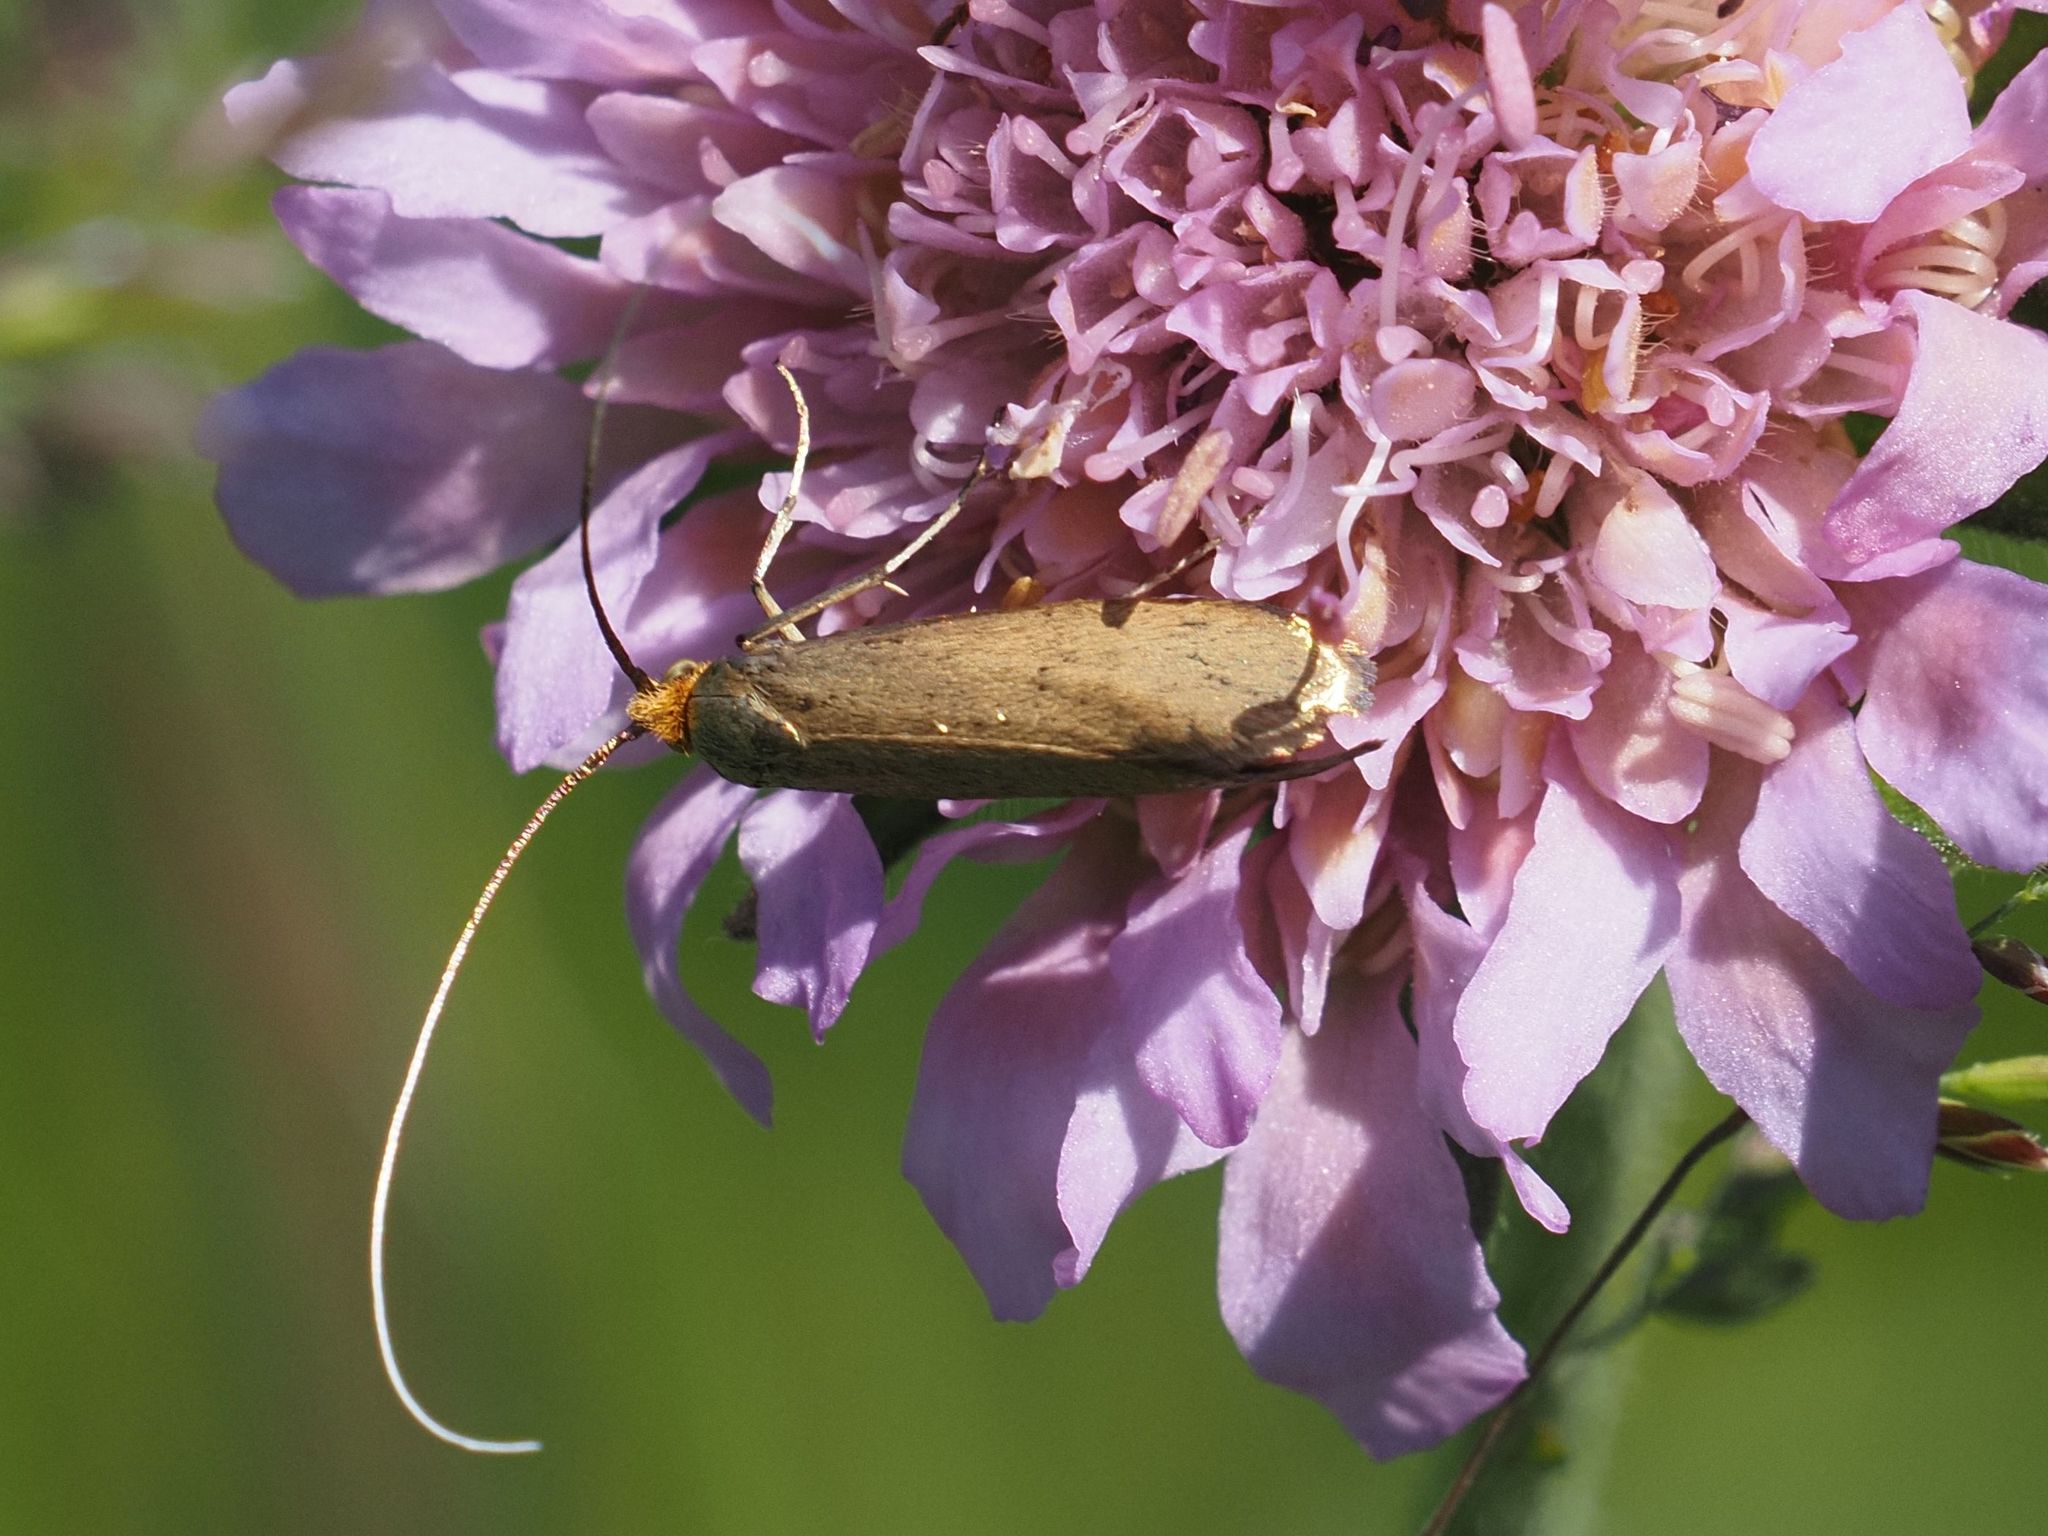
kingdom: Animalia
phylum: Arthropoda
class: Insecta
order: Lepidoptera
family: Adelidae
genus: Nemophora
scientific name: Nemophora metallica
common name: Brassy long-horn
